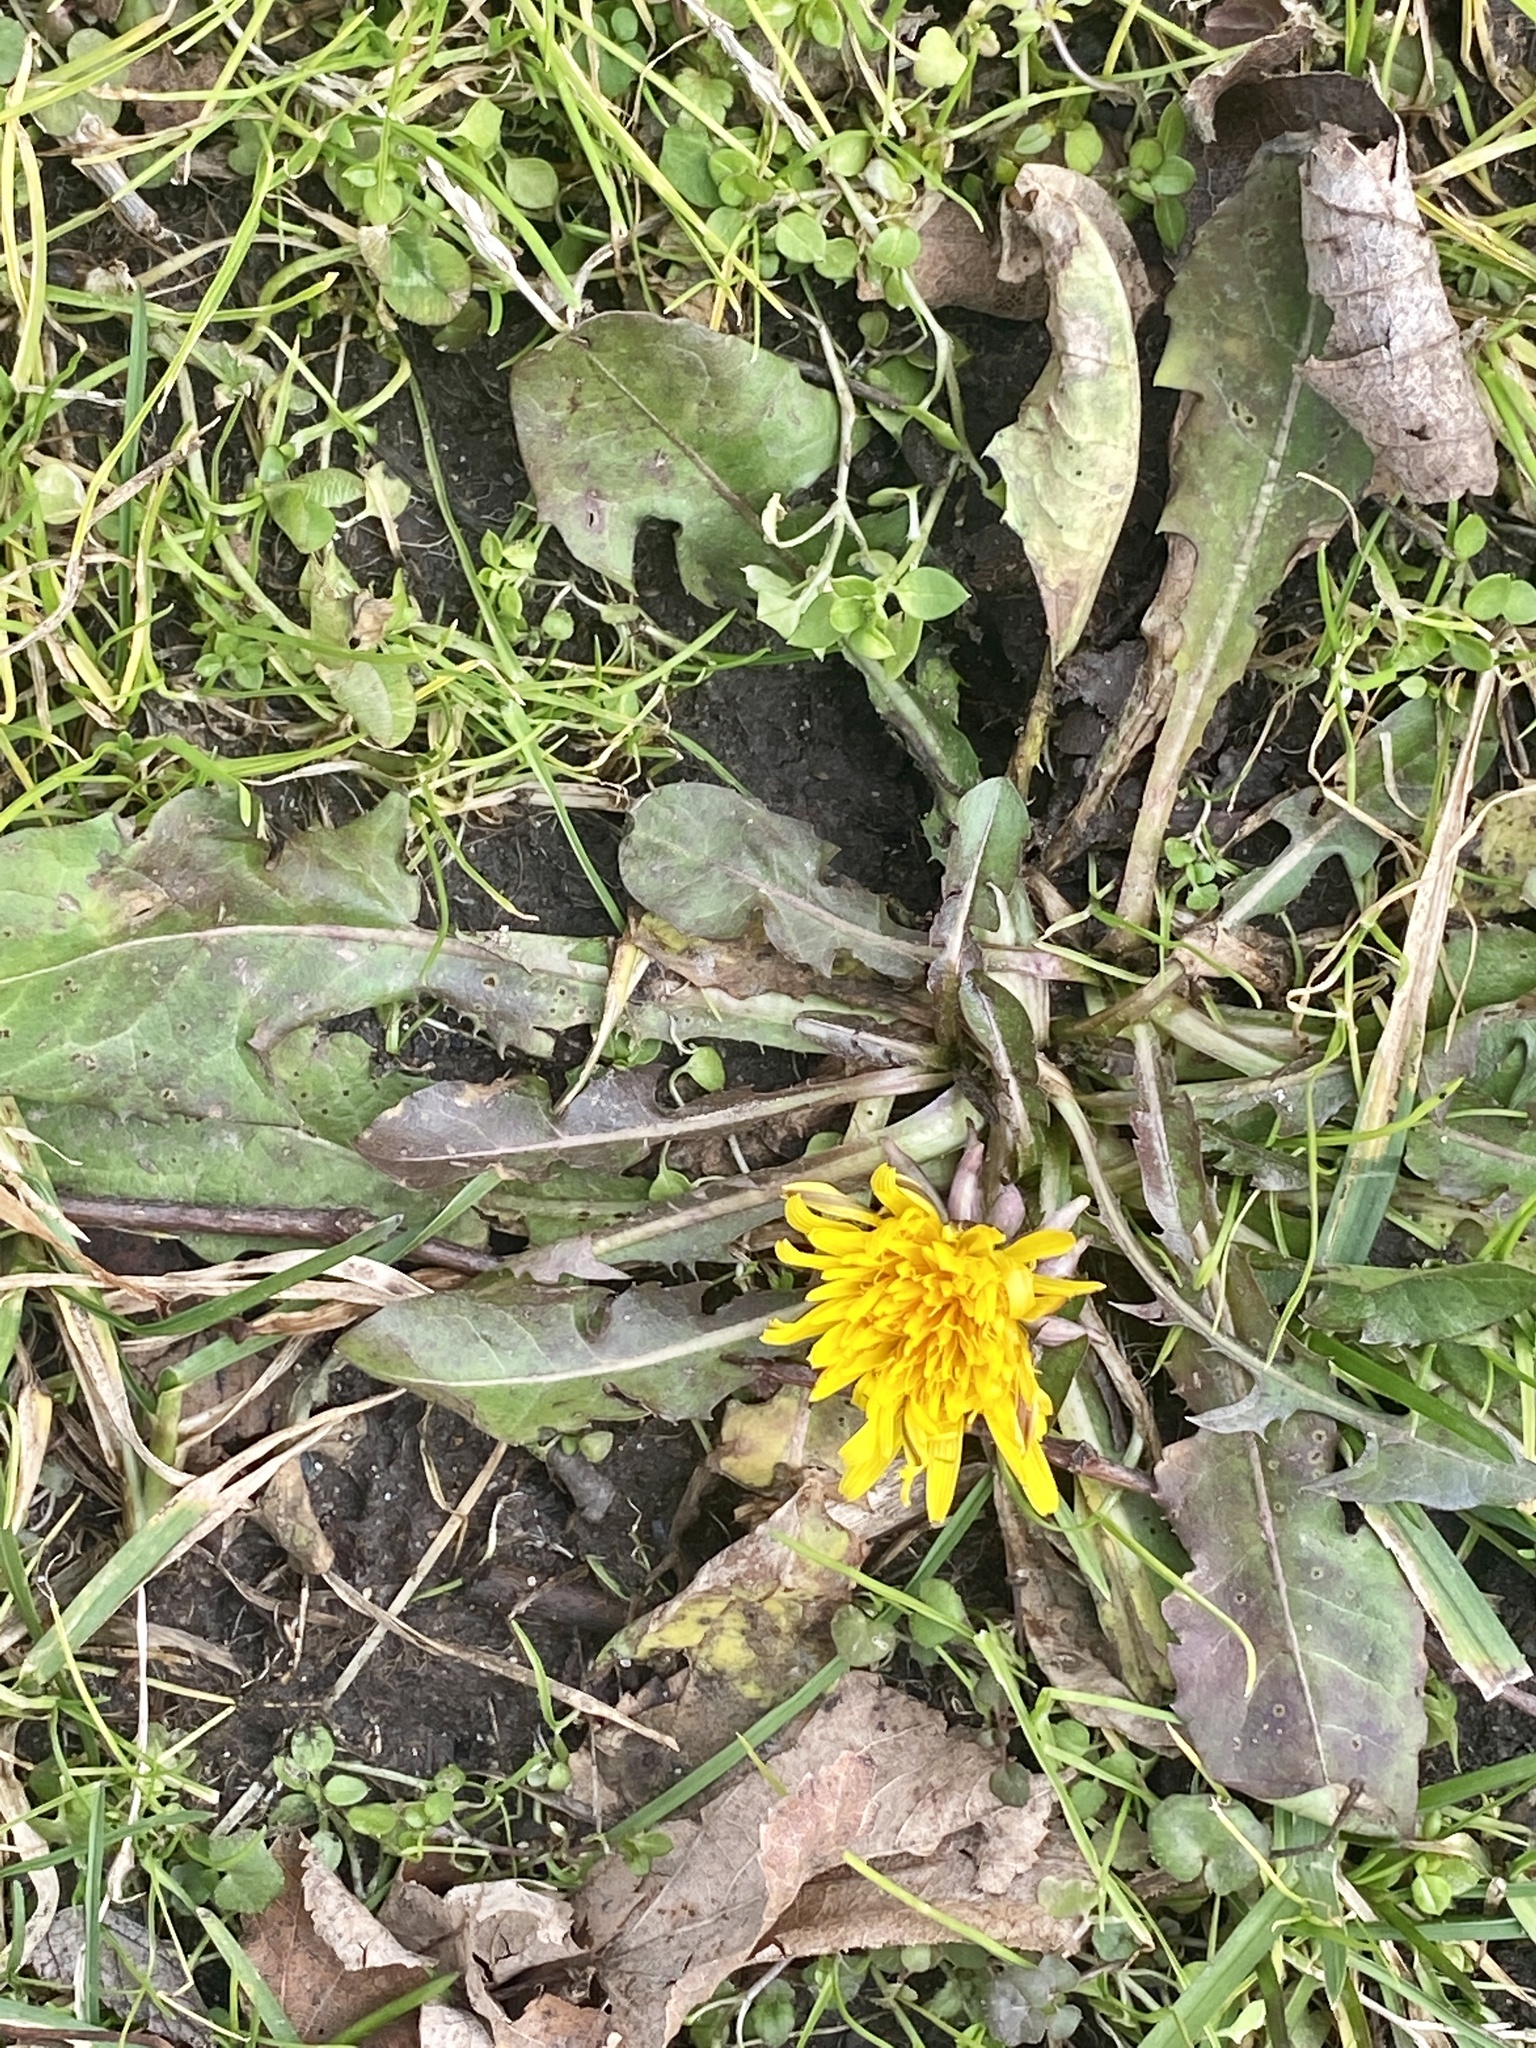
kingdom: Plantae
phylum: Tracheophyta
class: Magnoliopsida
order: Asterales
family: Asteraceae
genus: Taraxacum
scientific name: Taraxacum officinale
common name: Common dandelion
